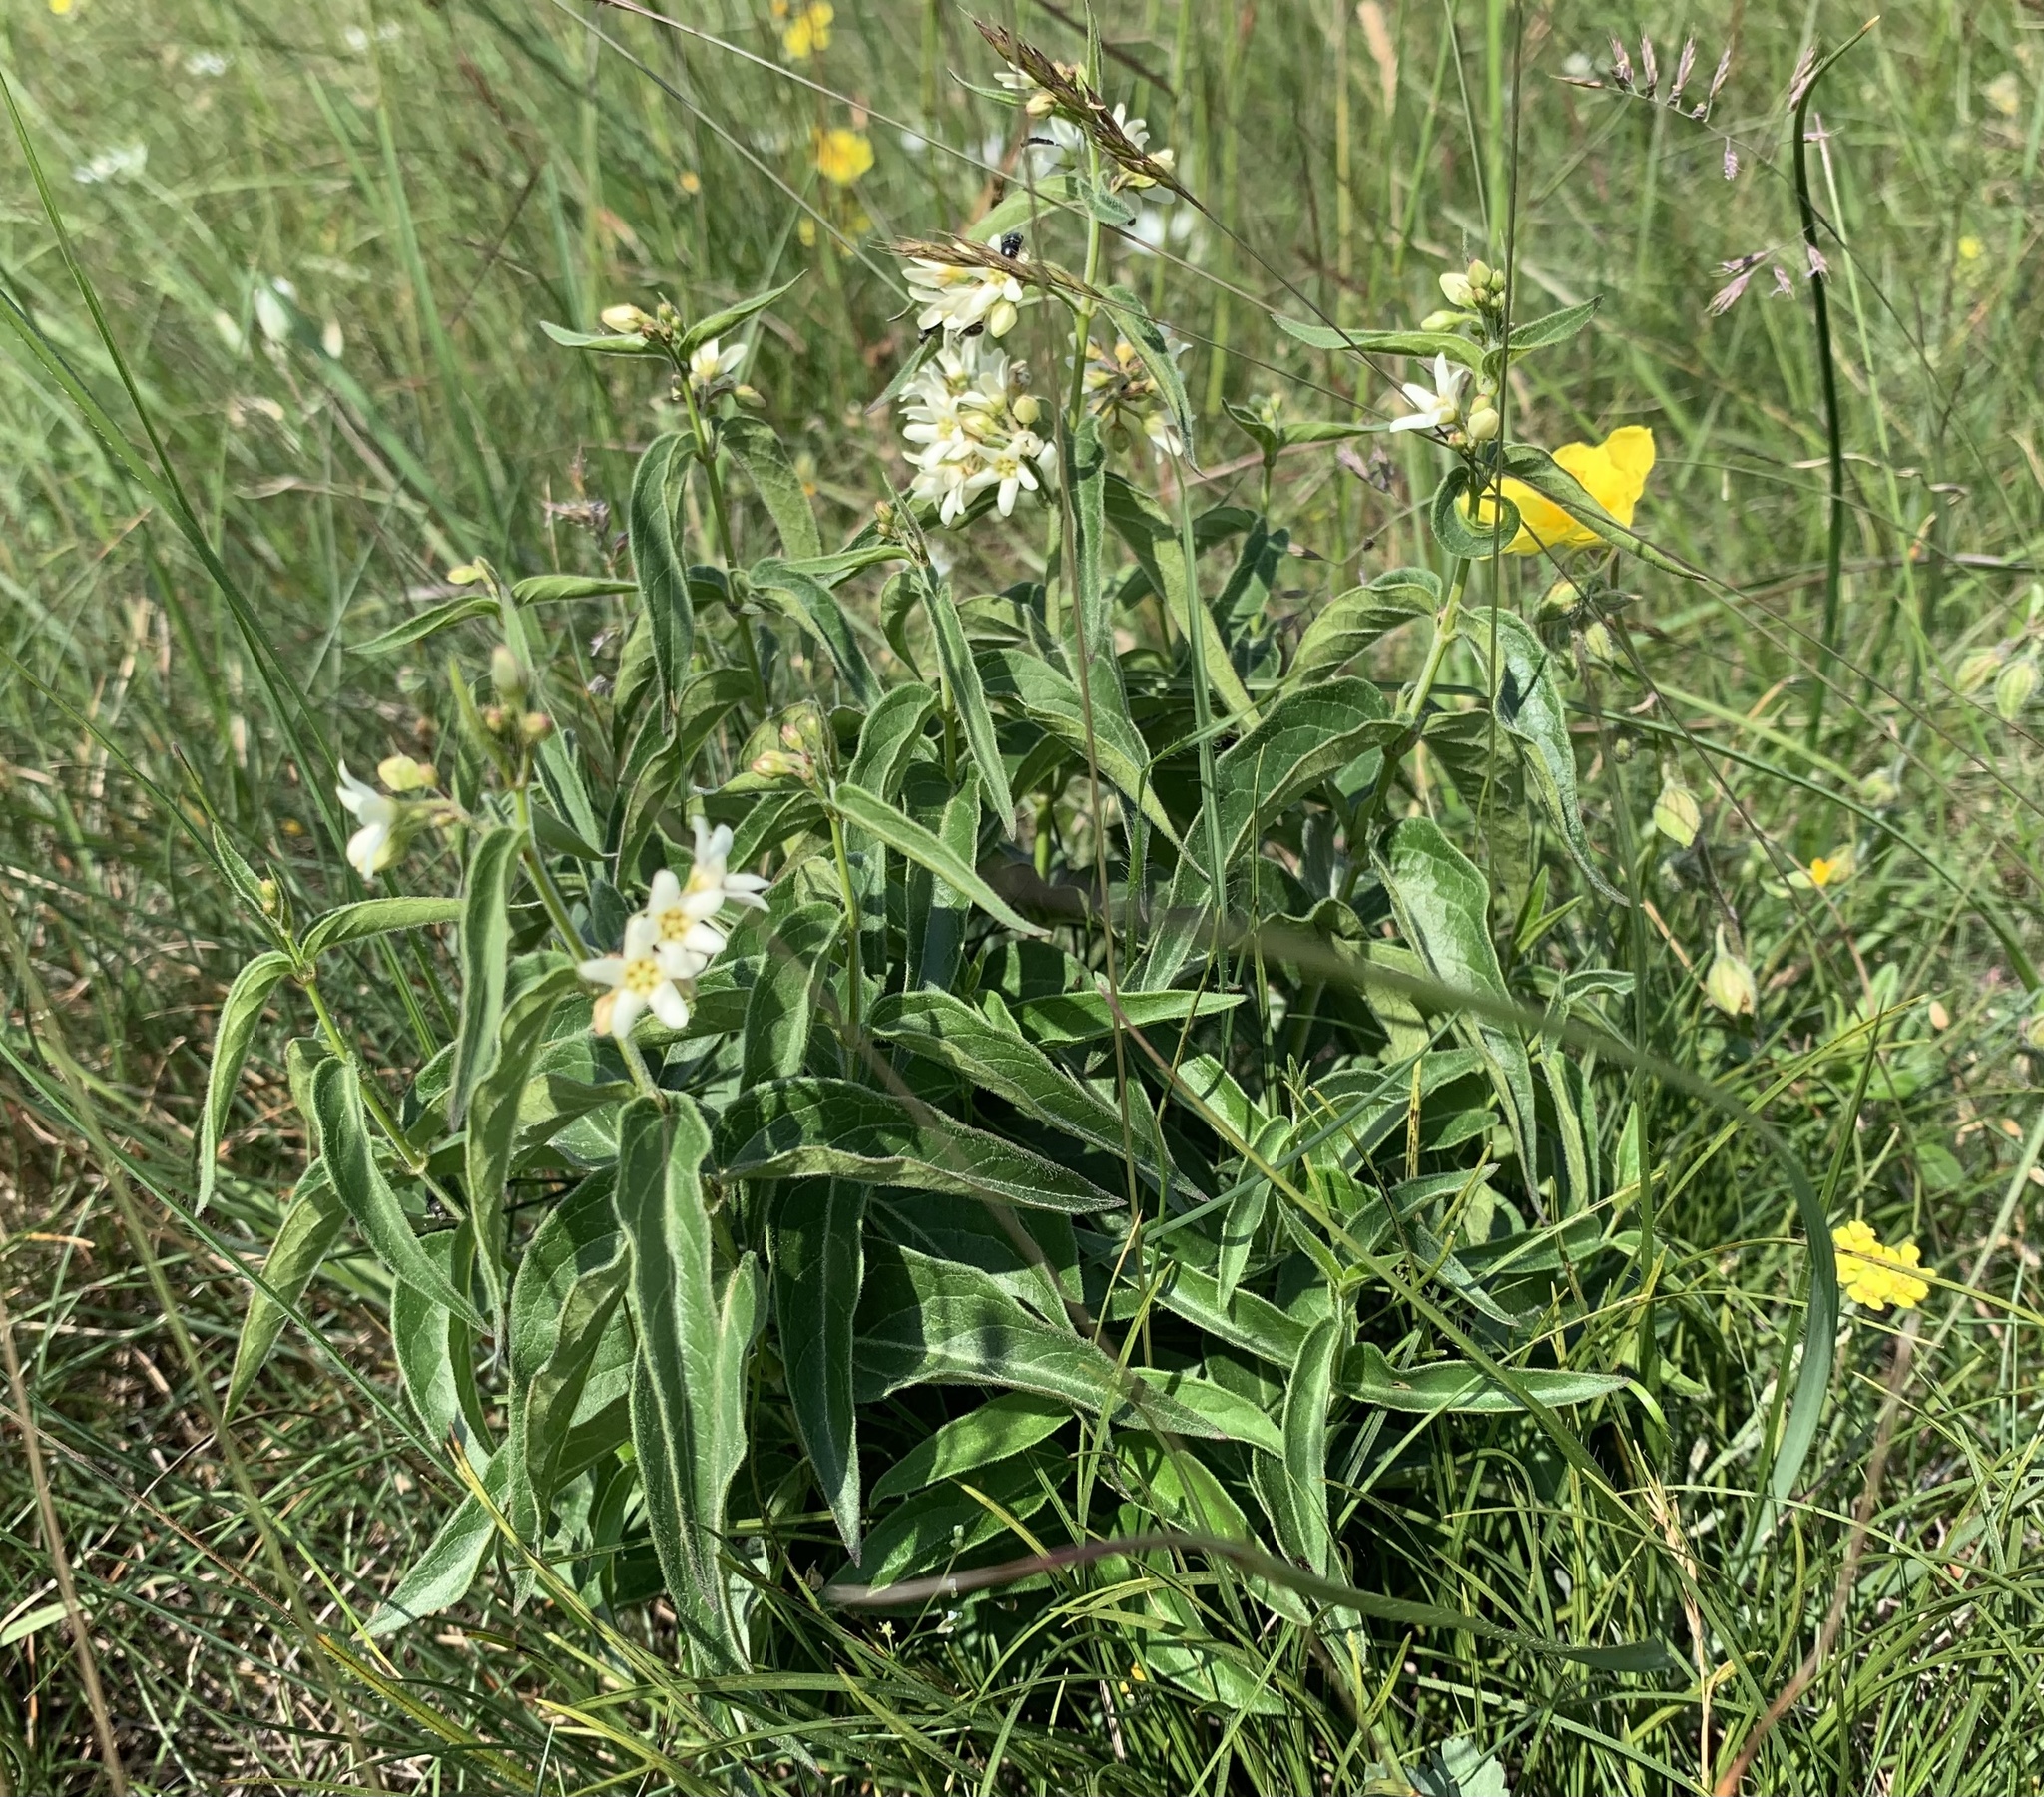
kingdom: Plantae
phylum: Tracheophyta
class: Magnoliopsida
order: Gentianales
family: Apocynaceae
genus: Vincetoxicum
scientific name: Vincetoxicum hirundinaria
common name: White swallowwort
